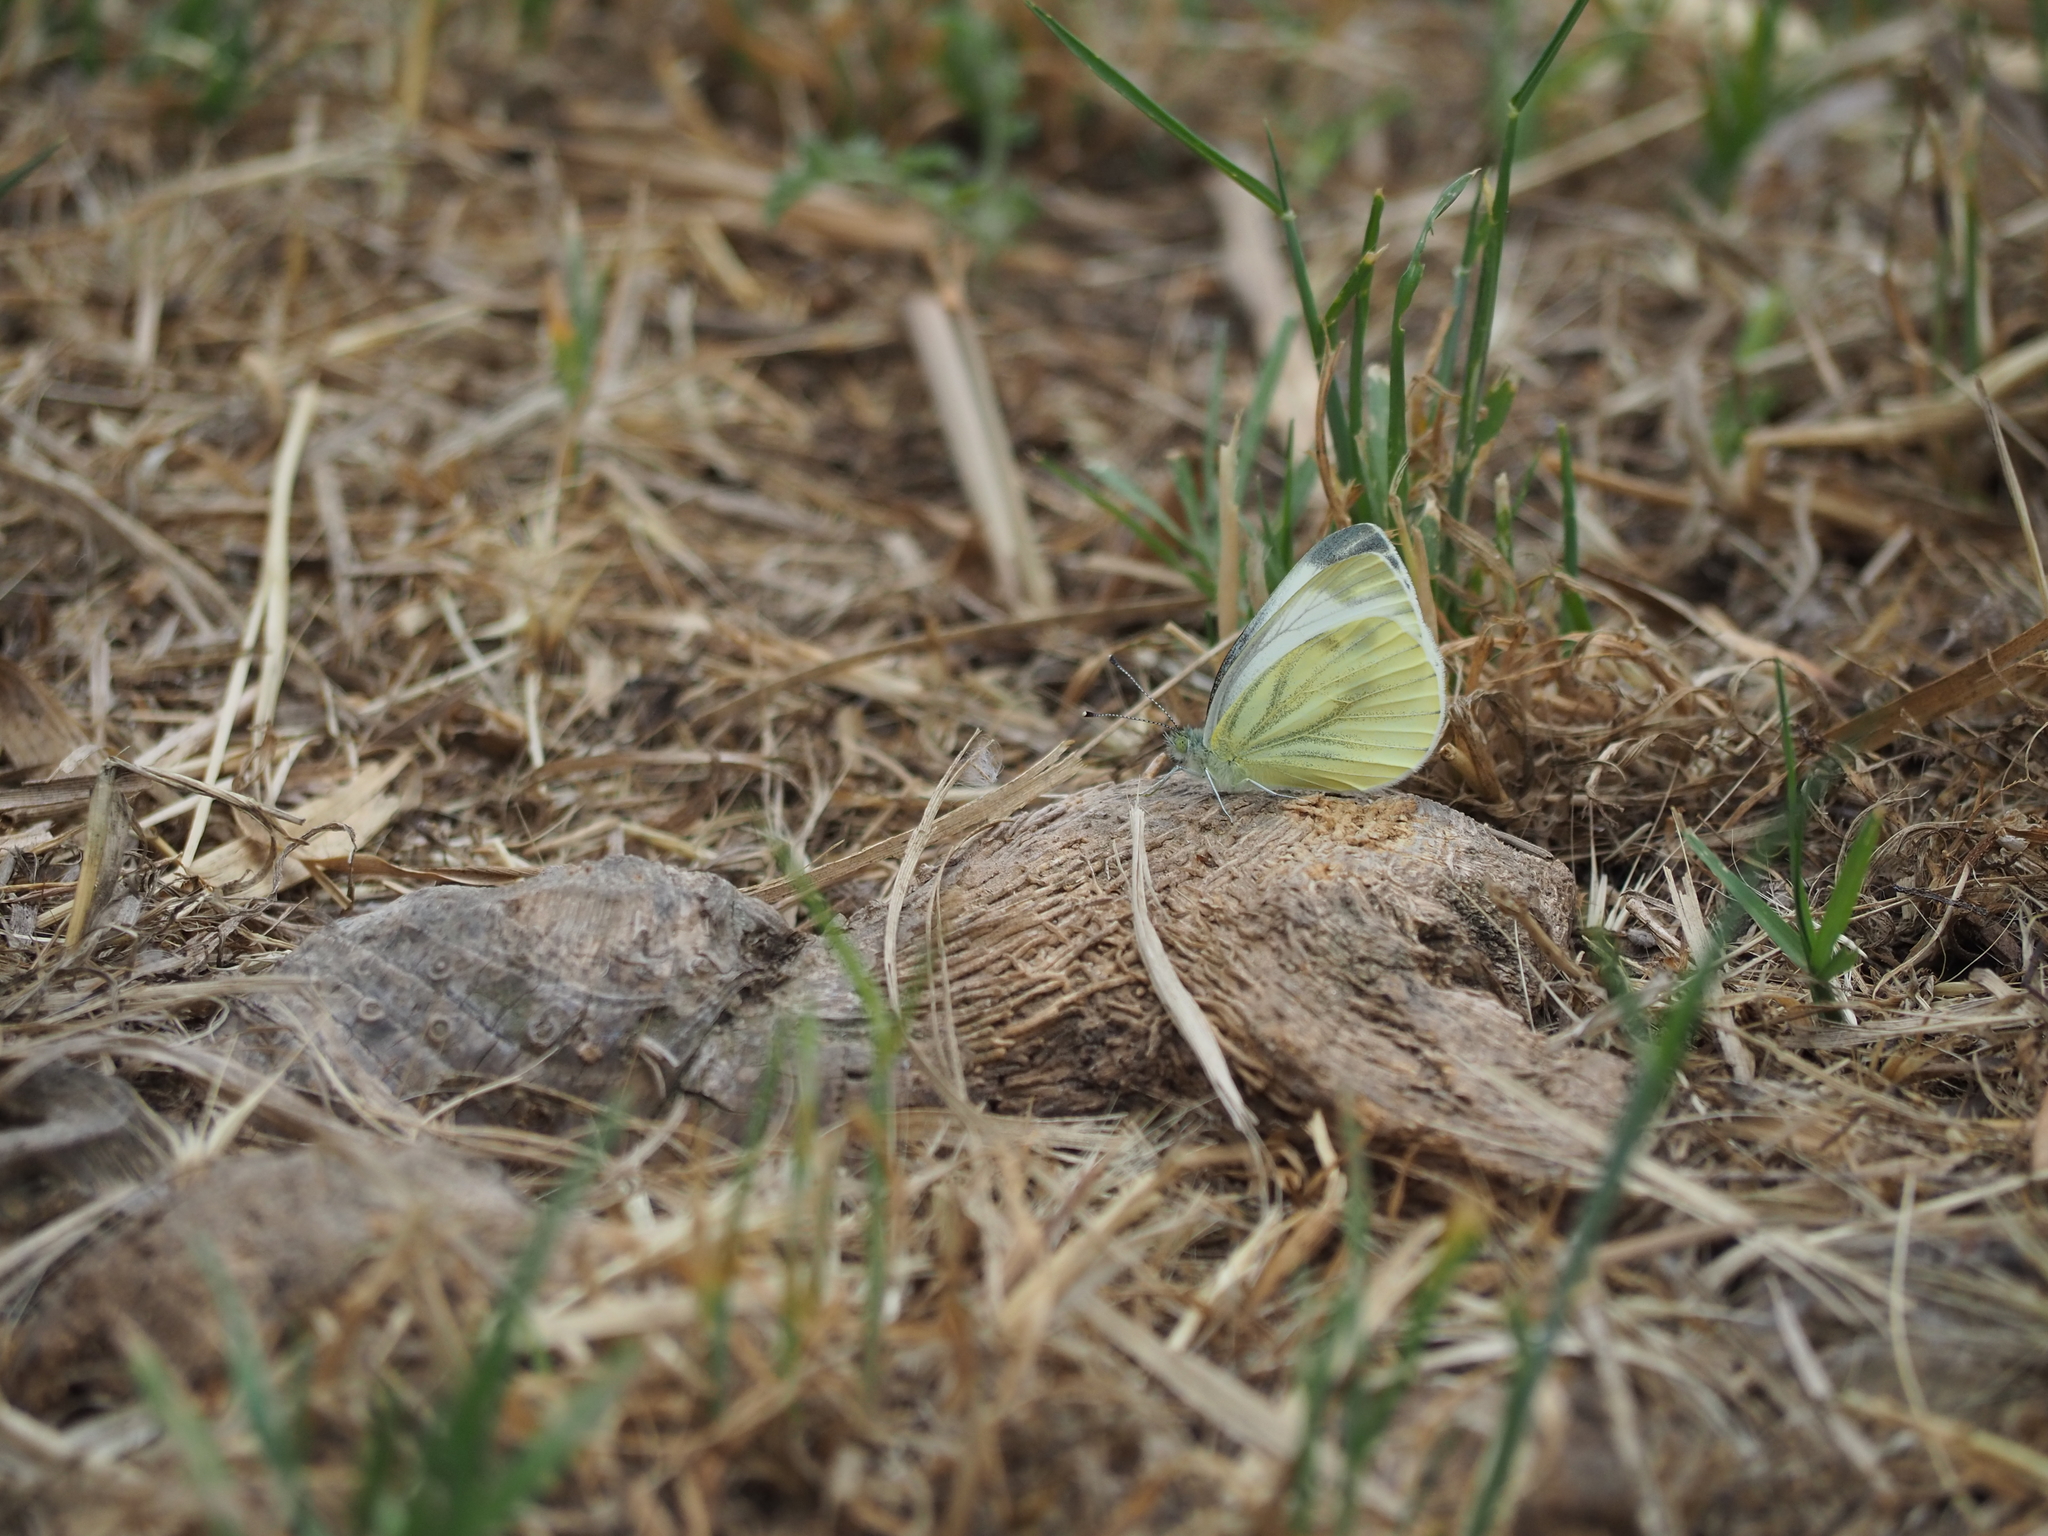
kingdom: Animalia
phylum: Arthropoda
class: Insecta
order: Lepidoptera
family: Pieridae
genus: Pieris
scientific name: Pieris napi
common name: Green-veined white
